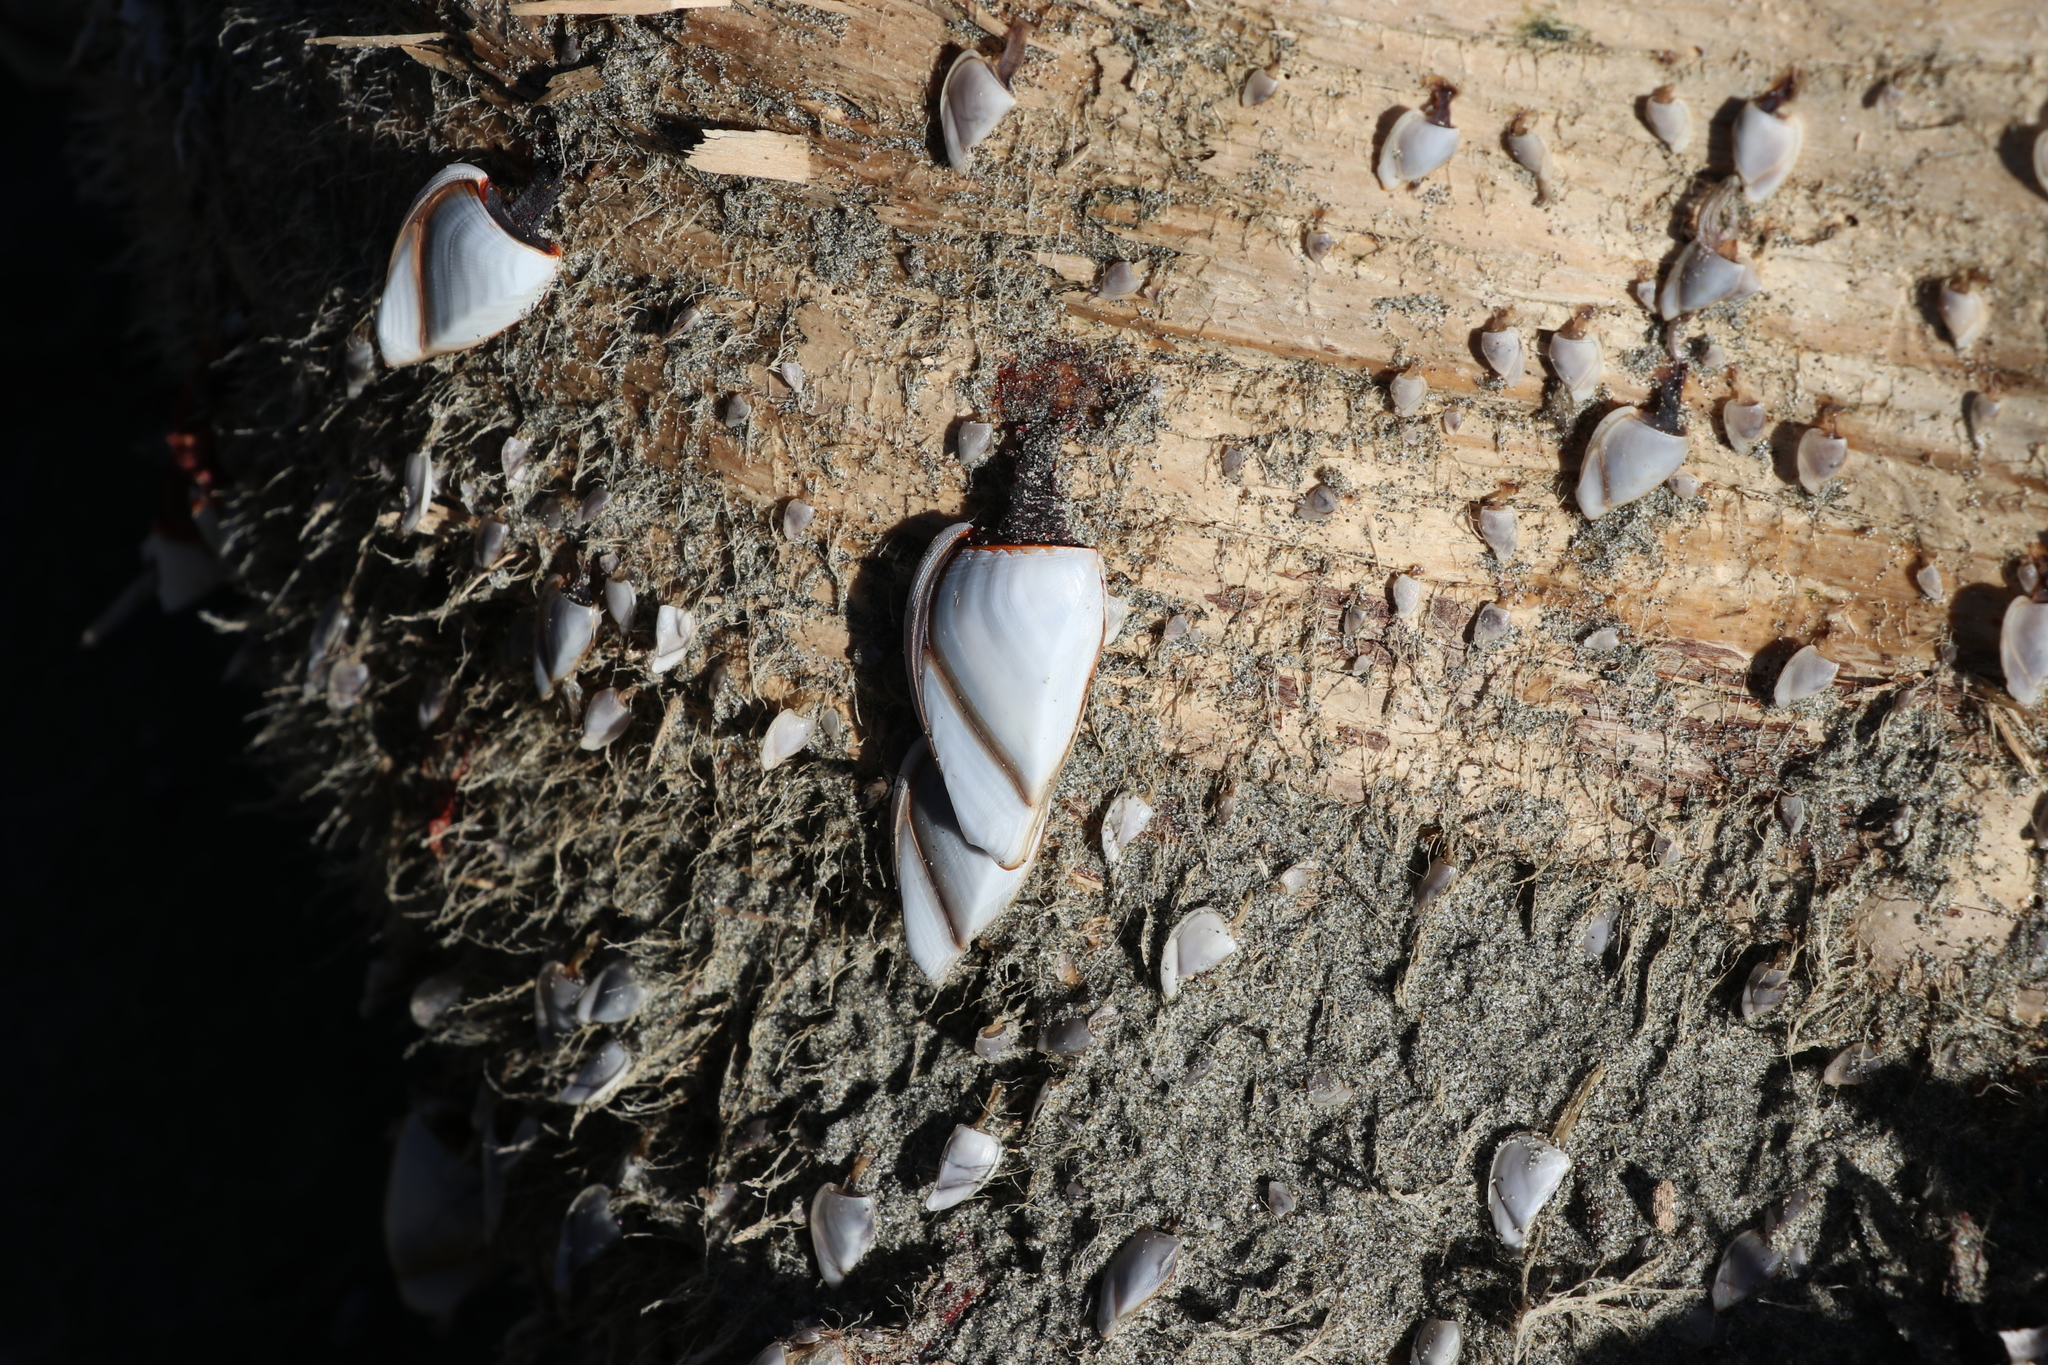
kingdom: Animalia
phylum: Arthropoda
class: Maxillopoda
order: Pedunculata
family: Lepadidae
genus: Lepas
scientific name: Lepas anatifera
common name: Common goose barnacle
